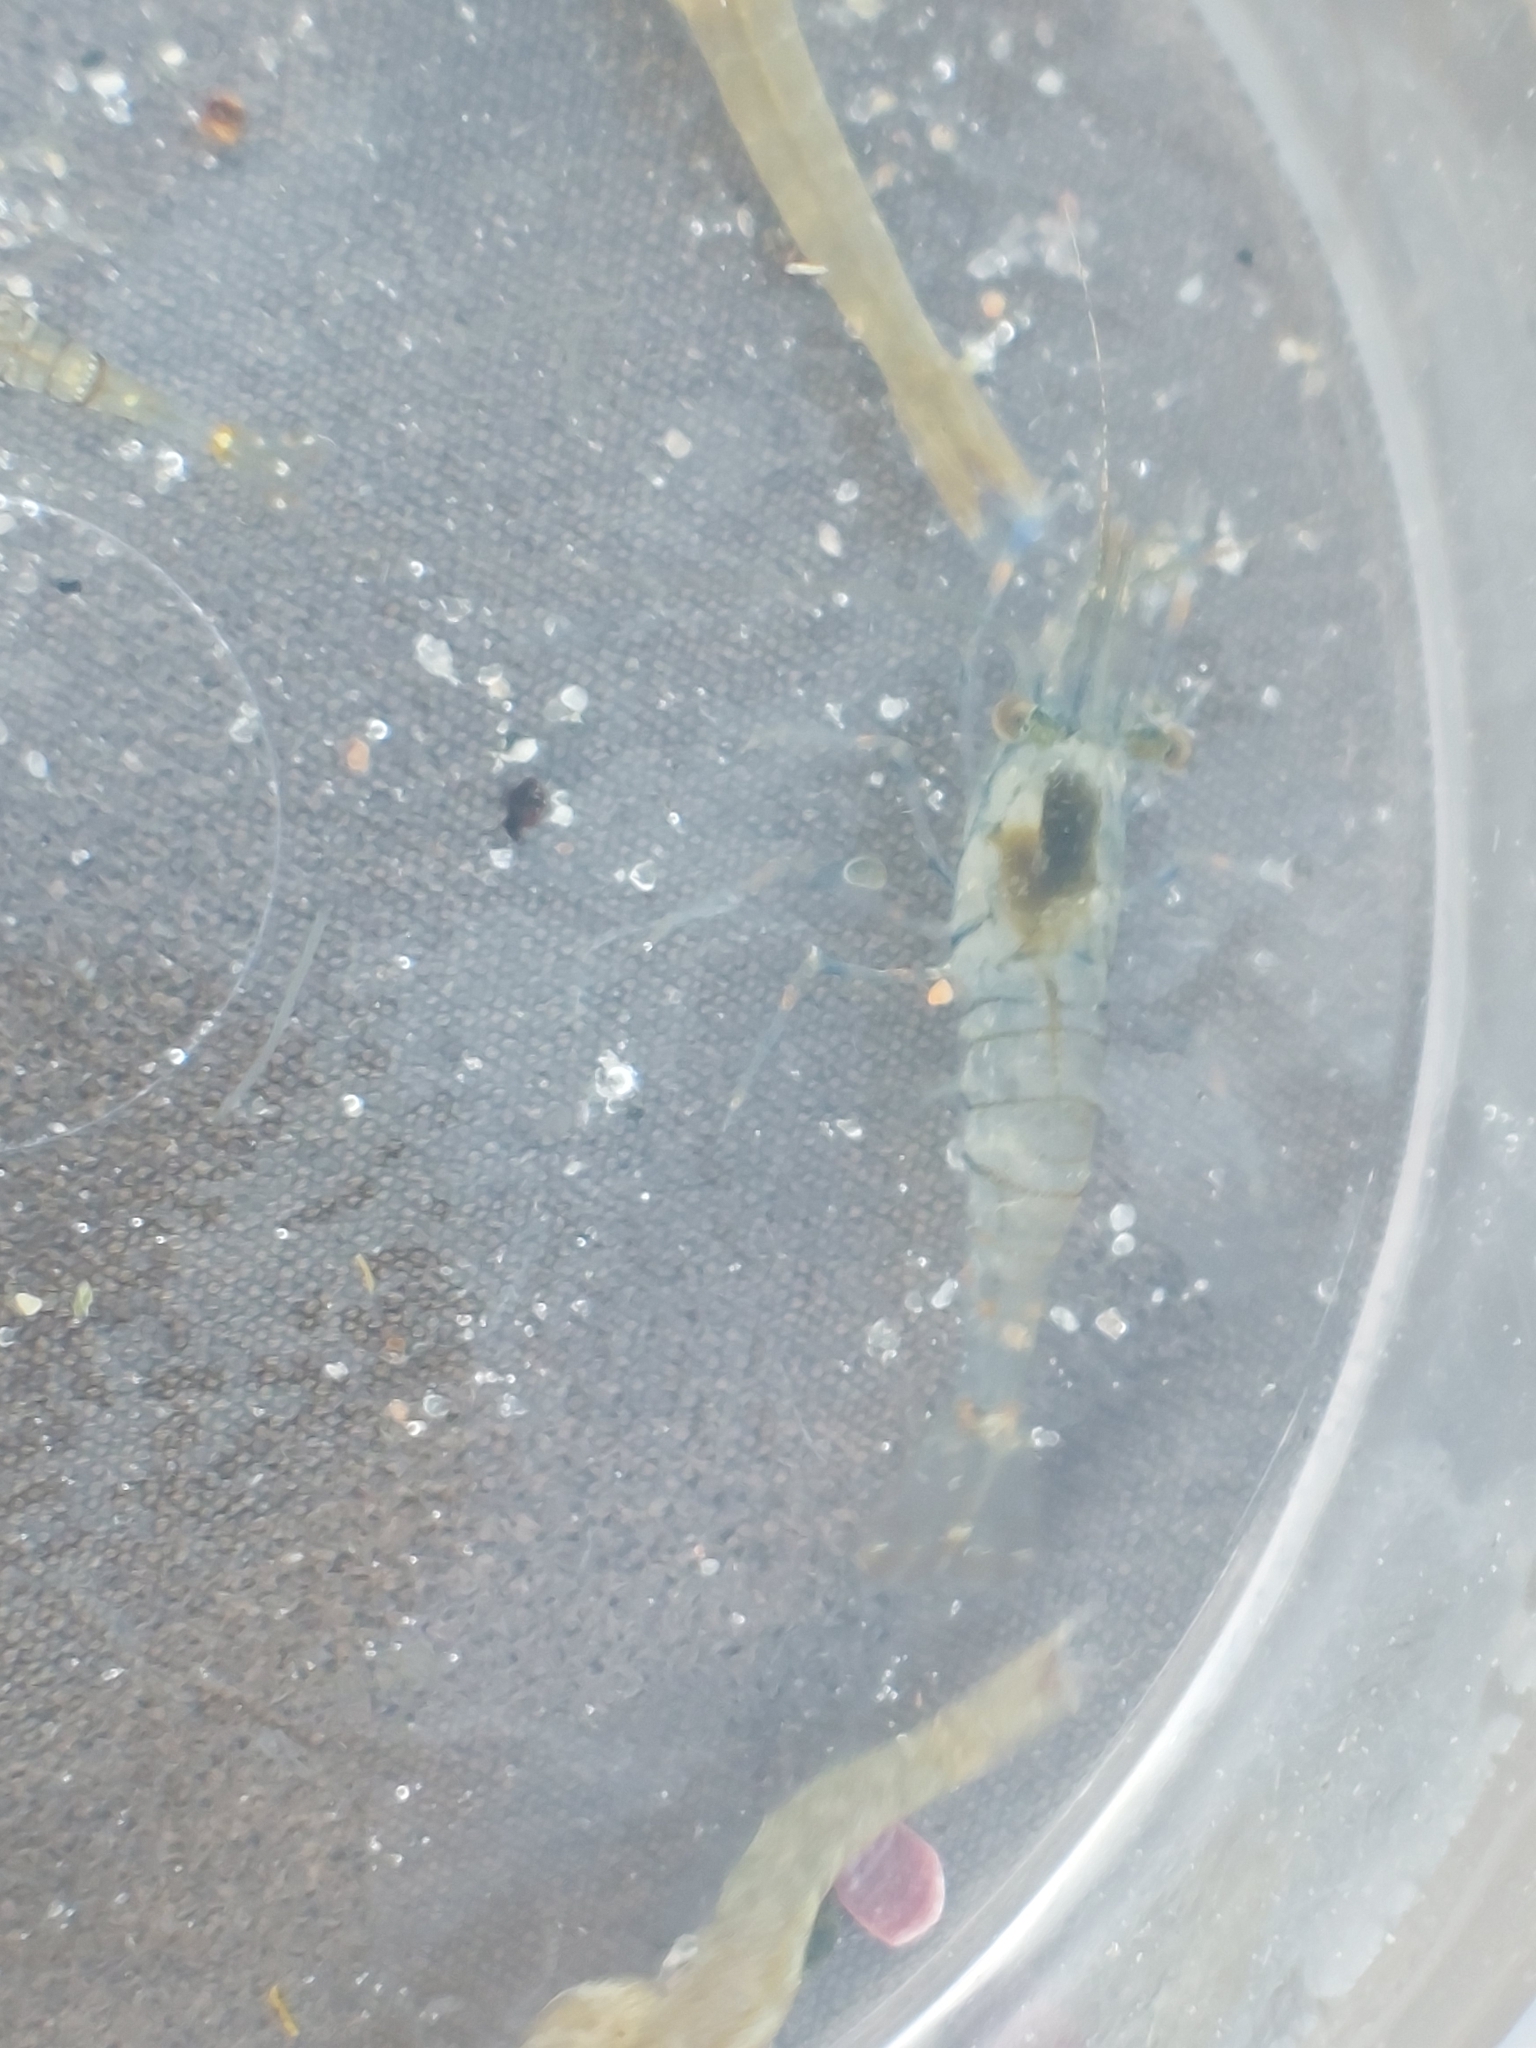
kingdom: Animalia
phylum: Arthropoda
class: Malacostraca
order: Decapoda
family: Palaemonidae
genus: Palaemon
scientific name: Palaemon elegans
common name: Grass prawm
